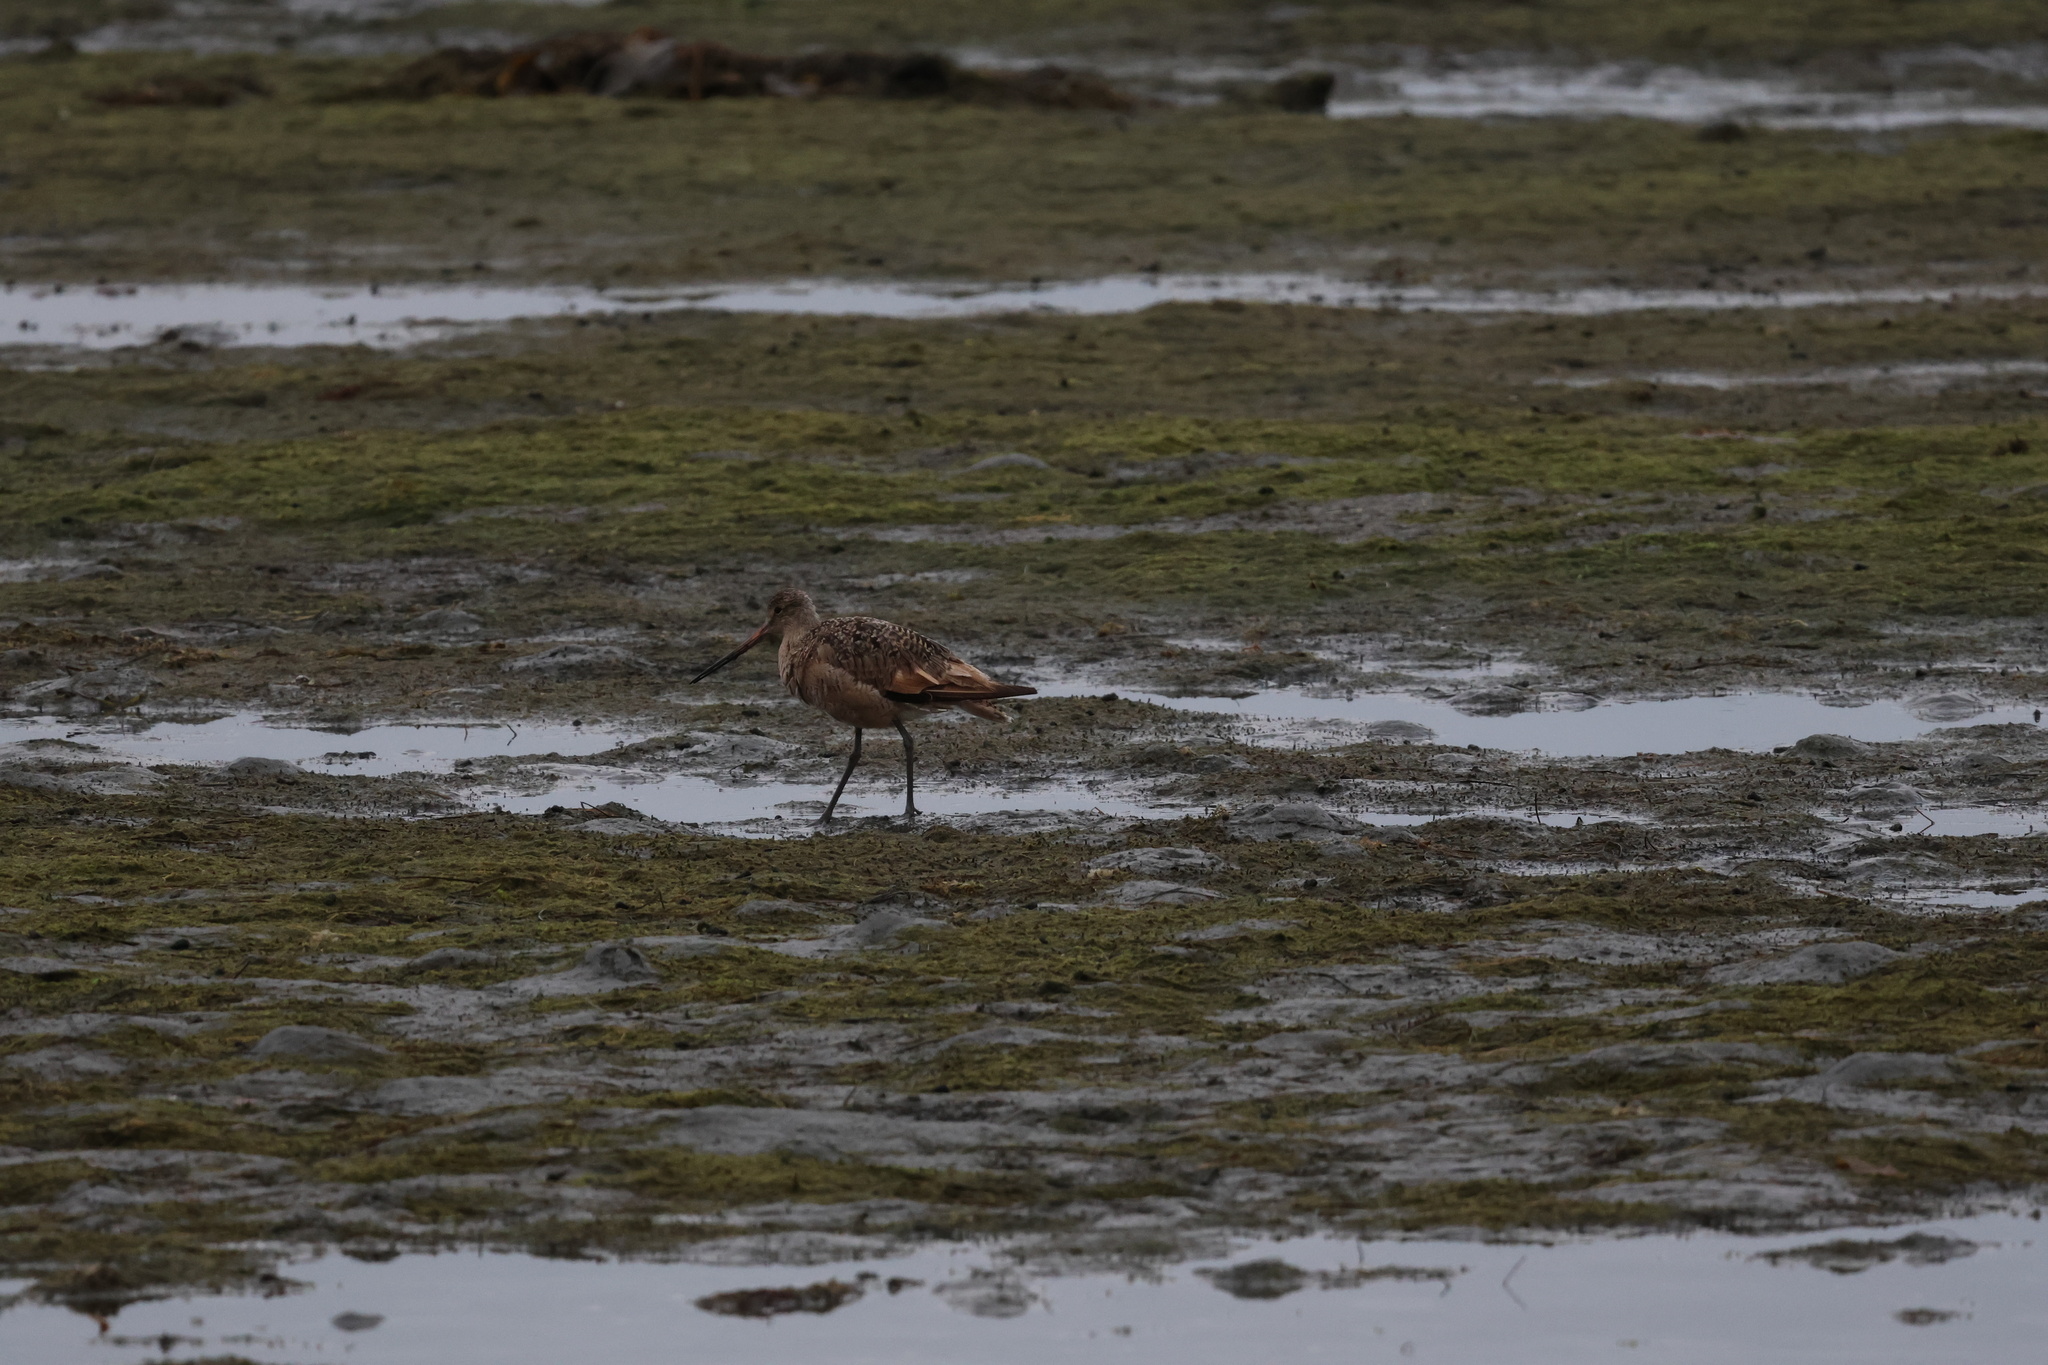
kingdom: Animalia
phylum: Chordata
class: Aves
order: Charadriiformes
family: Scolopacidae
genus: Limosa
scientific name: Limosa fedoa
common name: Marbled godwit
